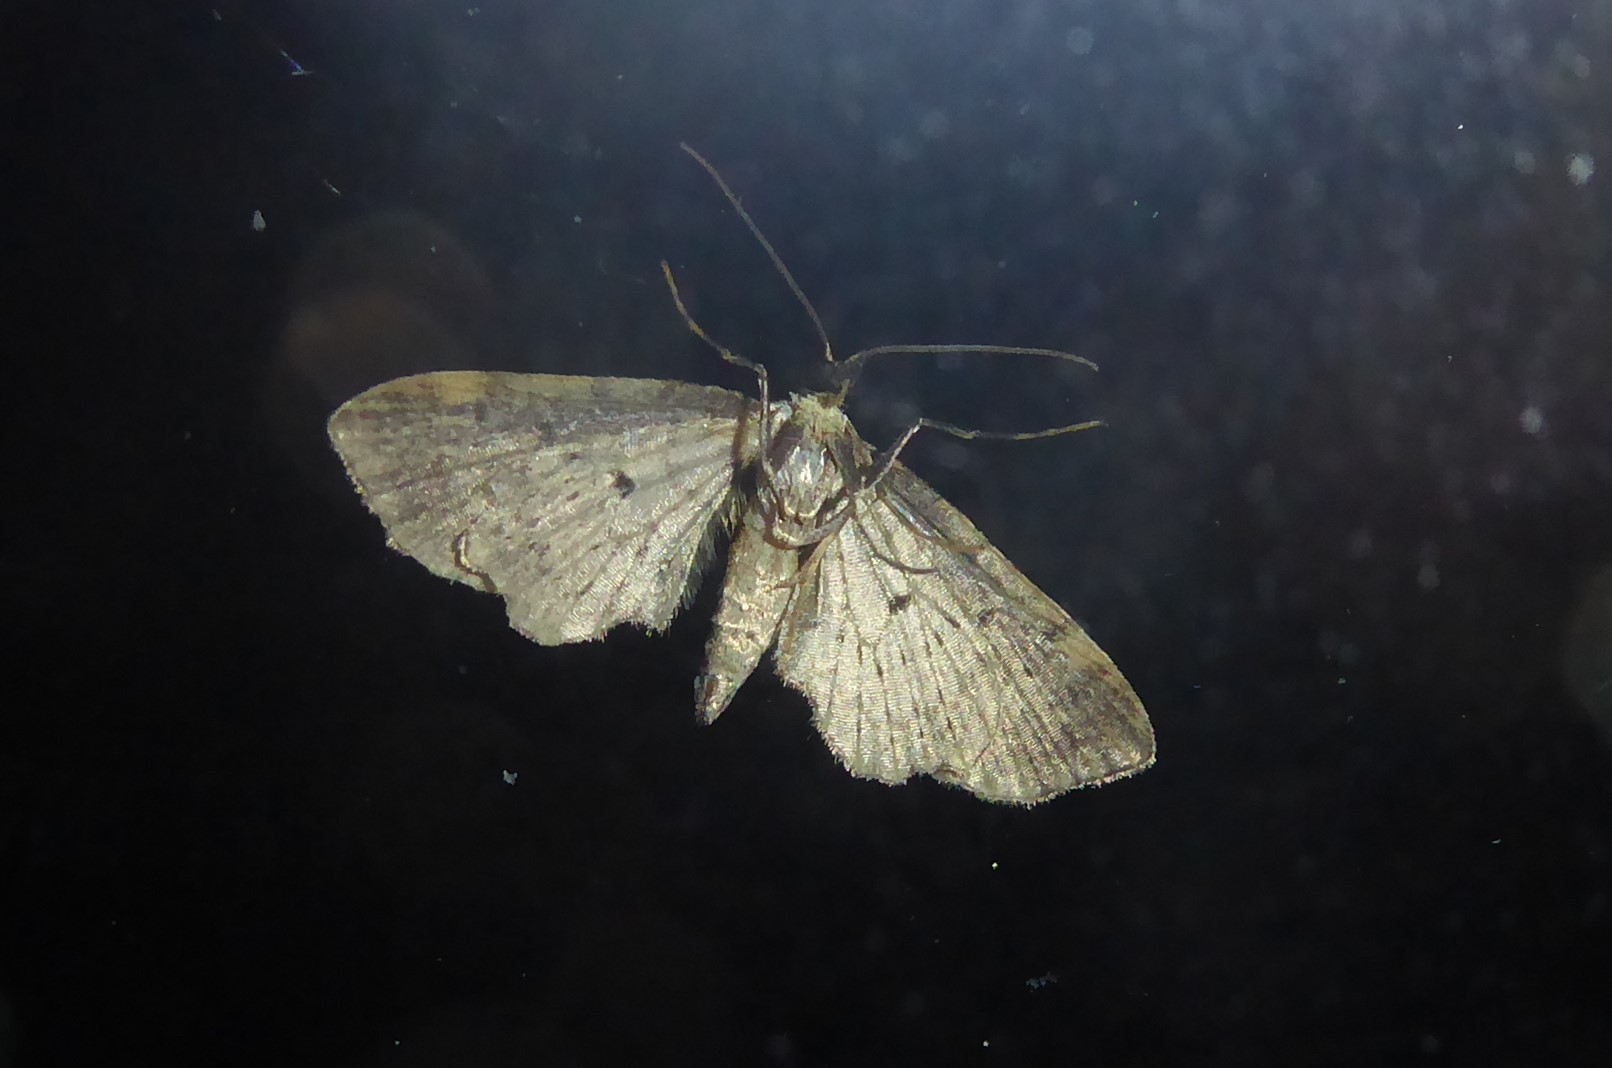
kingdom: Animalia
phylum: Arthropoda
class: Insecta
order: Lepidoptera
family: Geometridae
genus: Idaea
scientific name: Idaea mutanda
